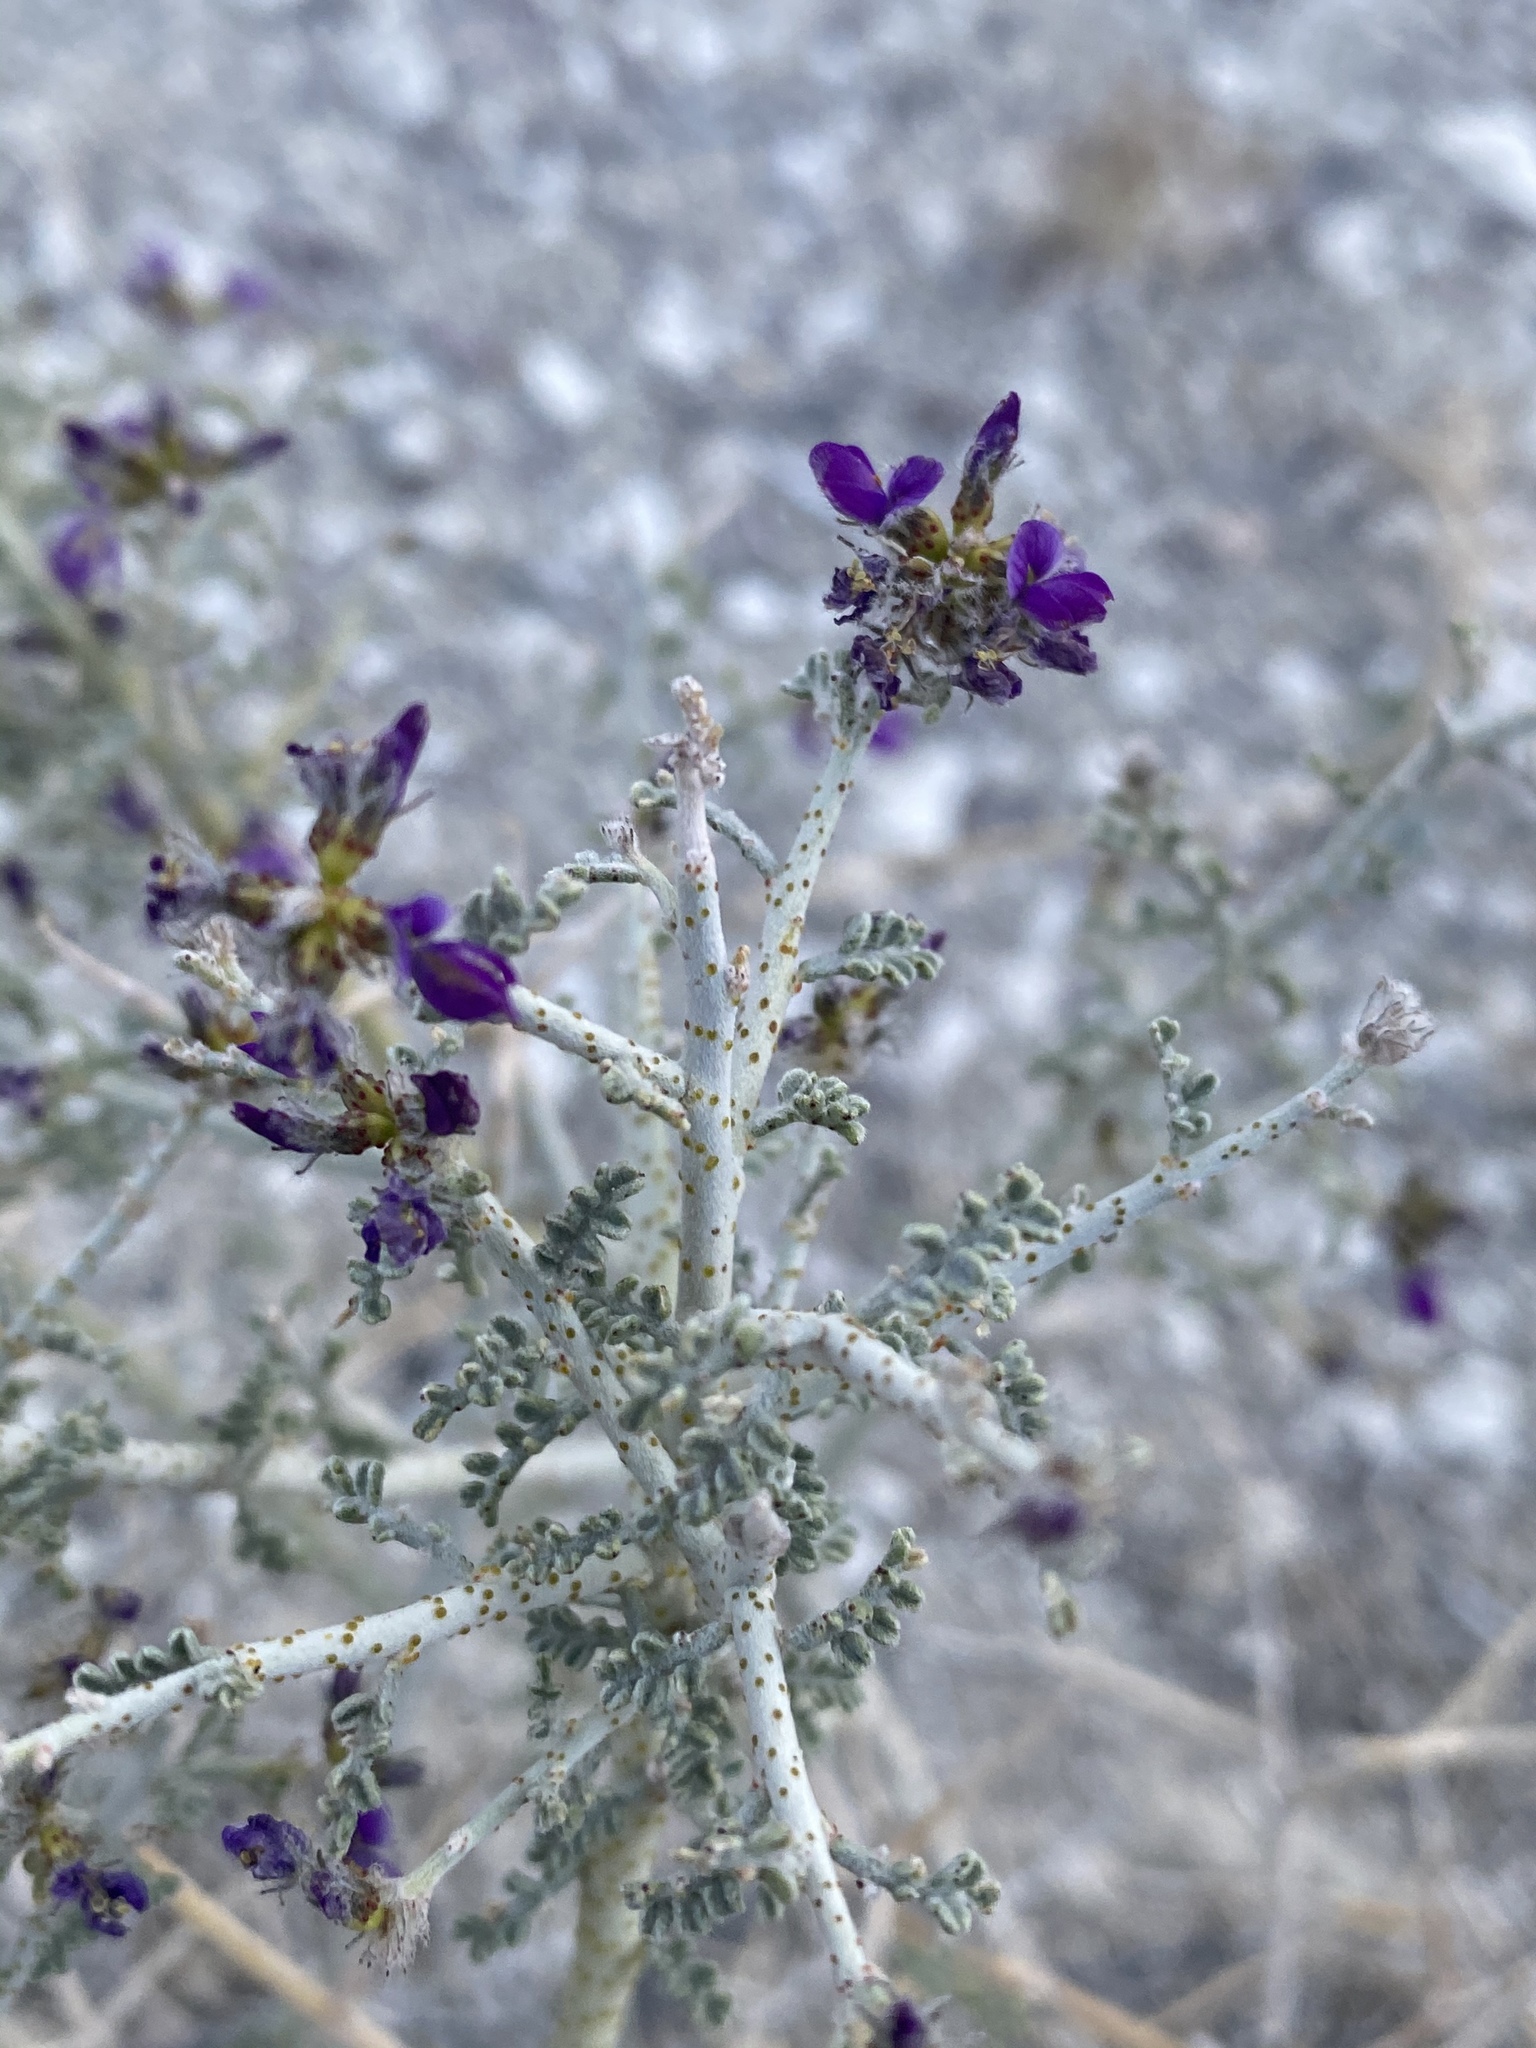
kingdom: Plantae
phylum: Tracheophyta
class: Magnoliopsida
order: Fabales
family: Fabaceae
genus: Psorothamnus
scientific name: Psorothamnus polydenius
